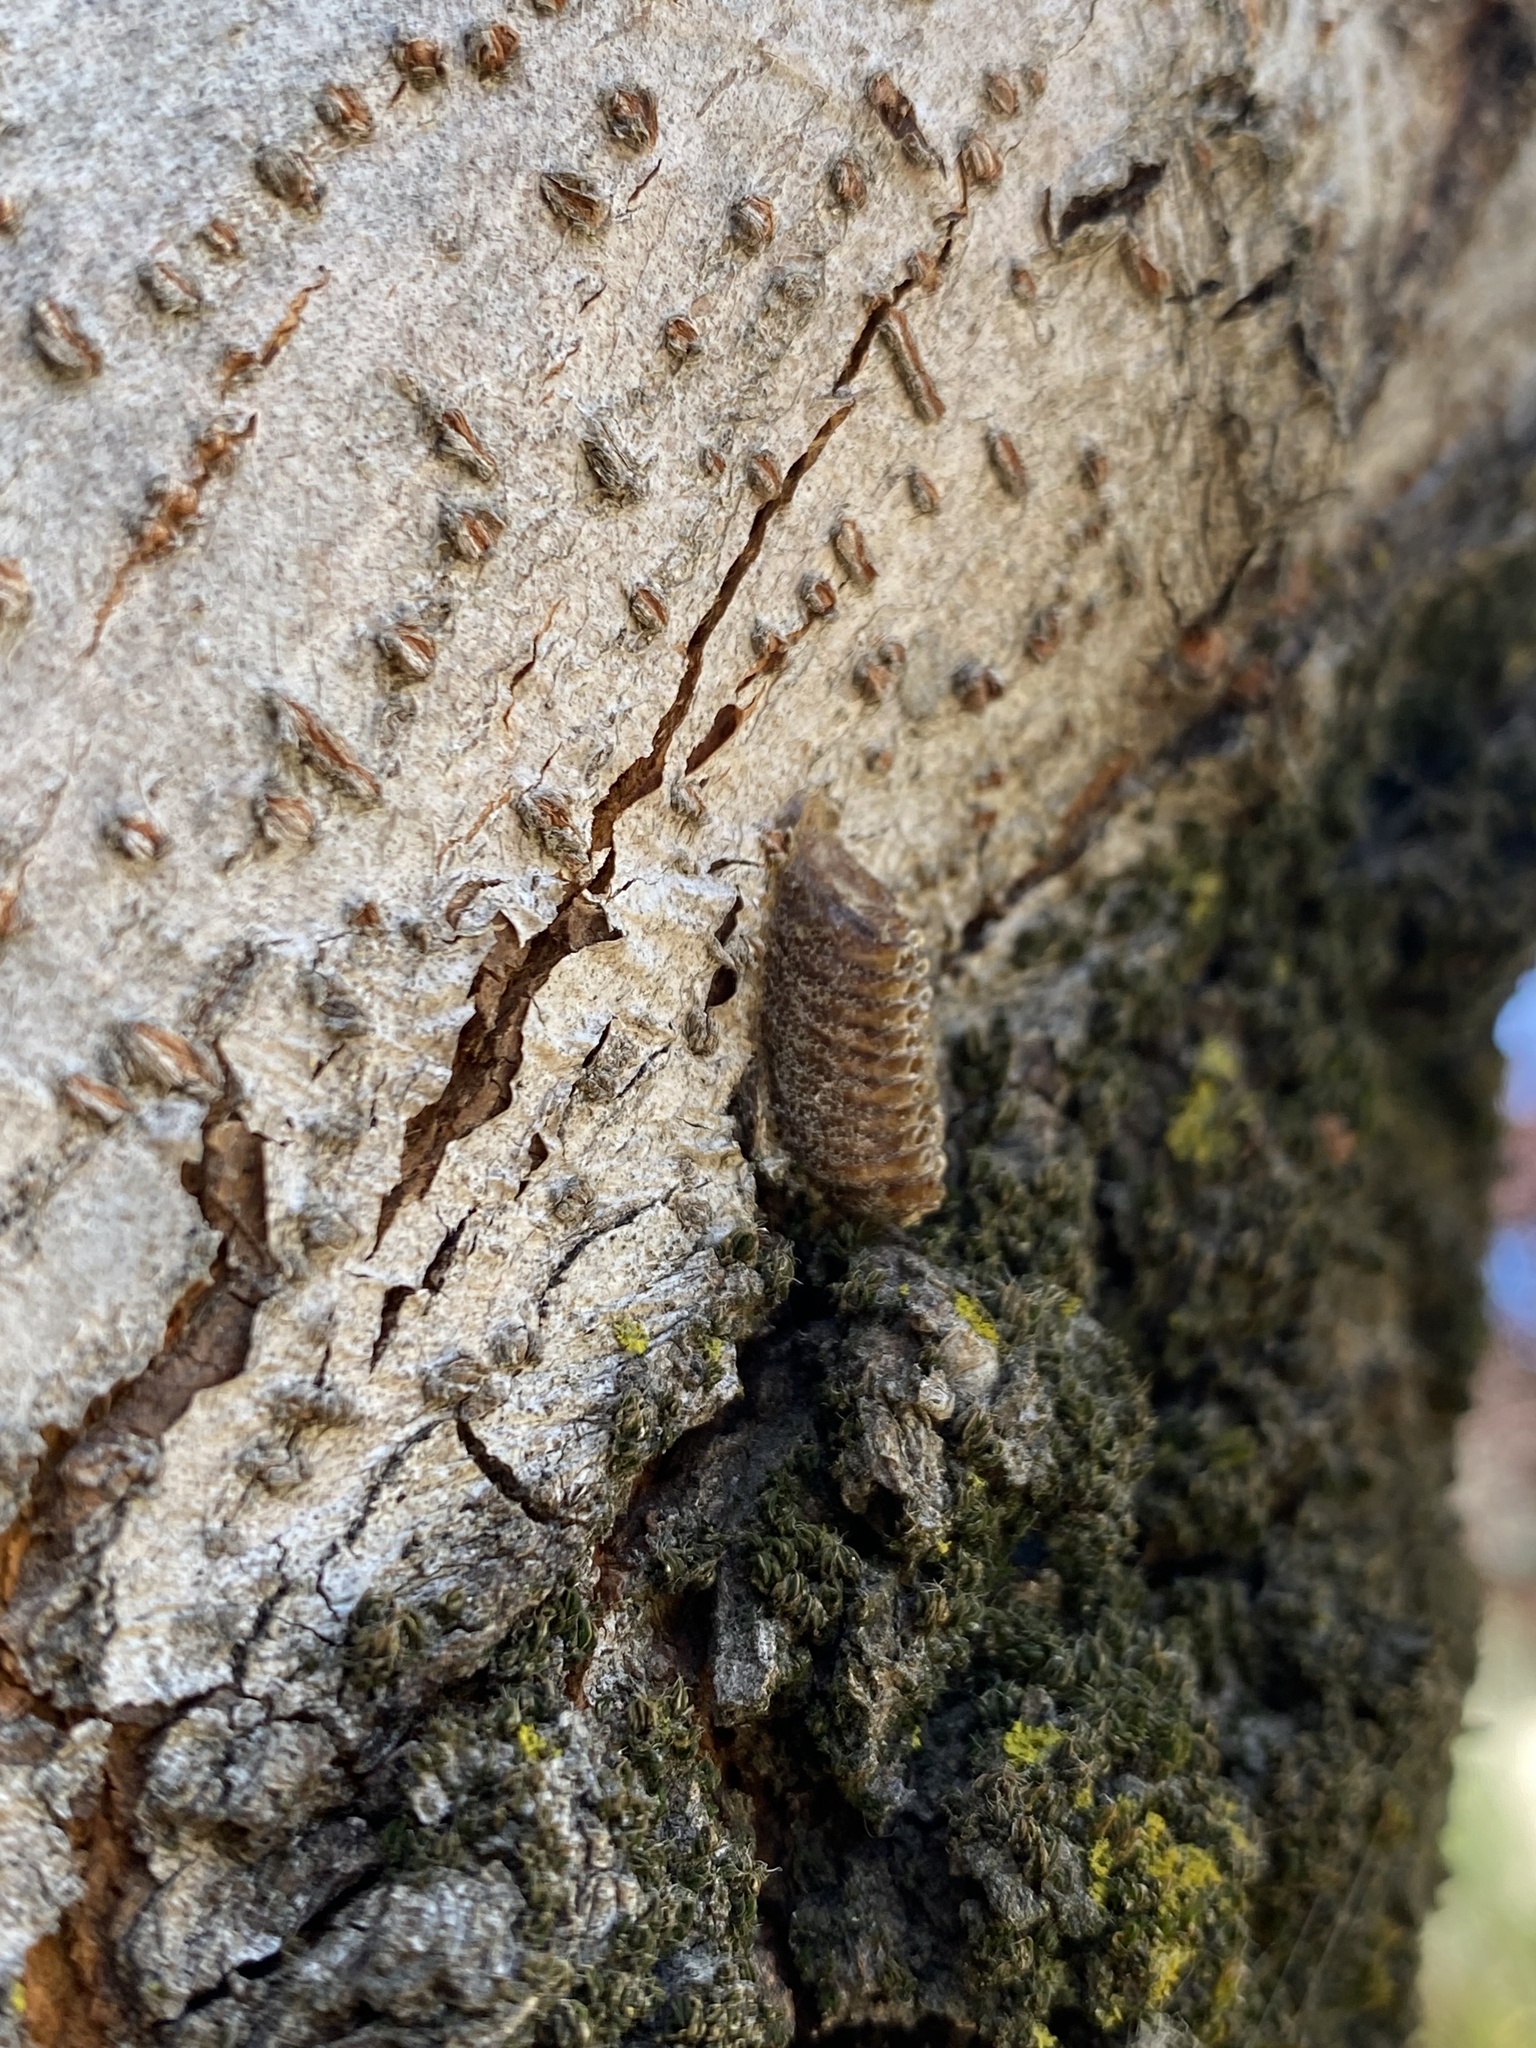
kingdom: Animalia
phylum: Arthropoda
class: Insecta
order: Mantodea
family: Mantidae
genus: Orthodera
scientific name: Orthodera novaezealandiae
